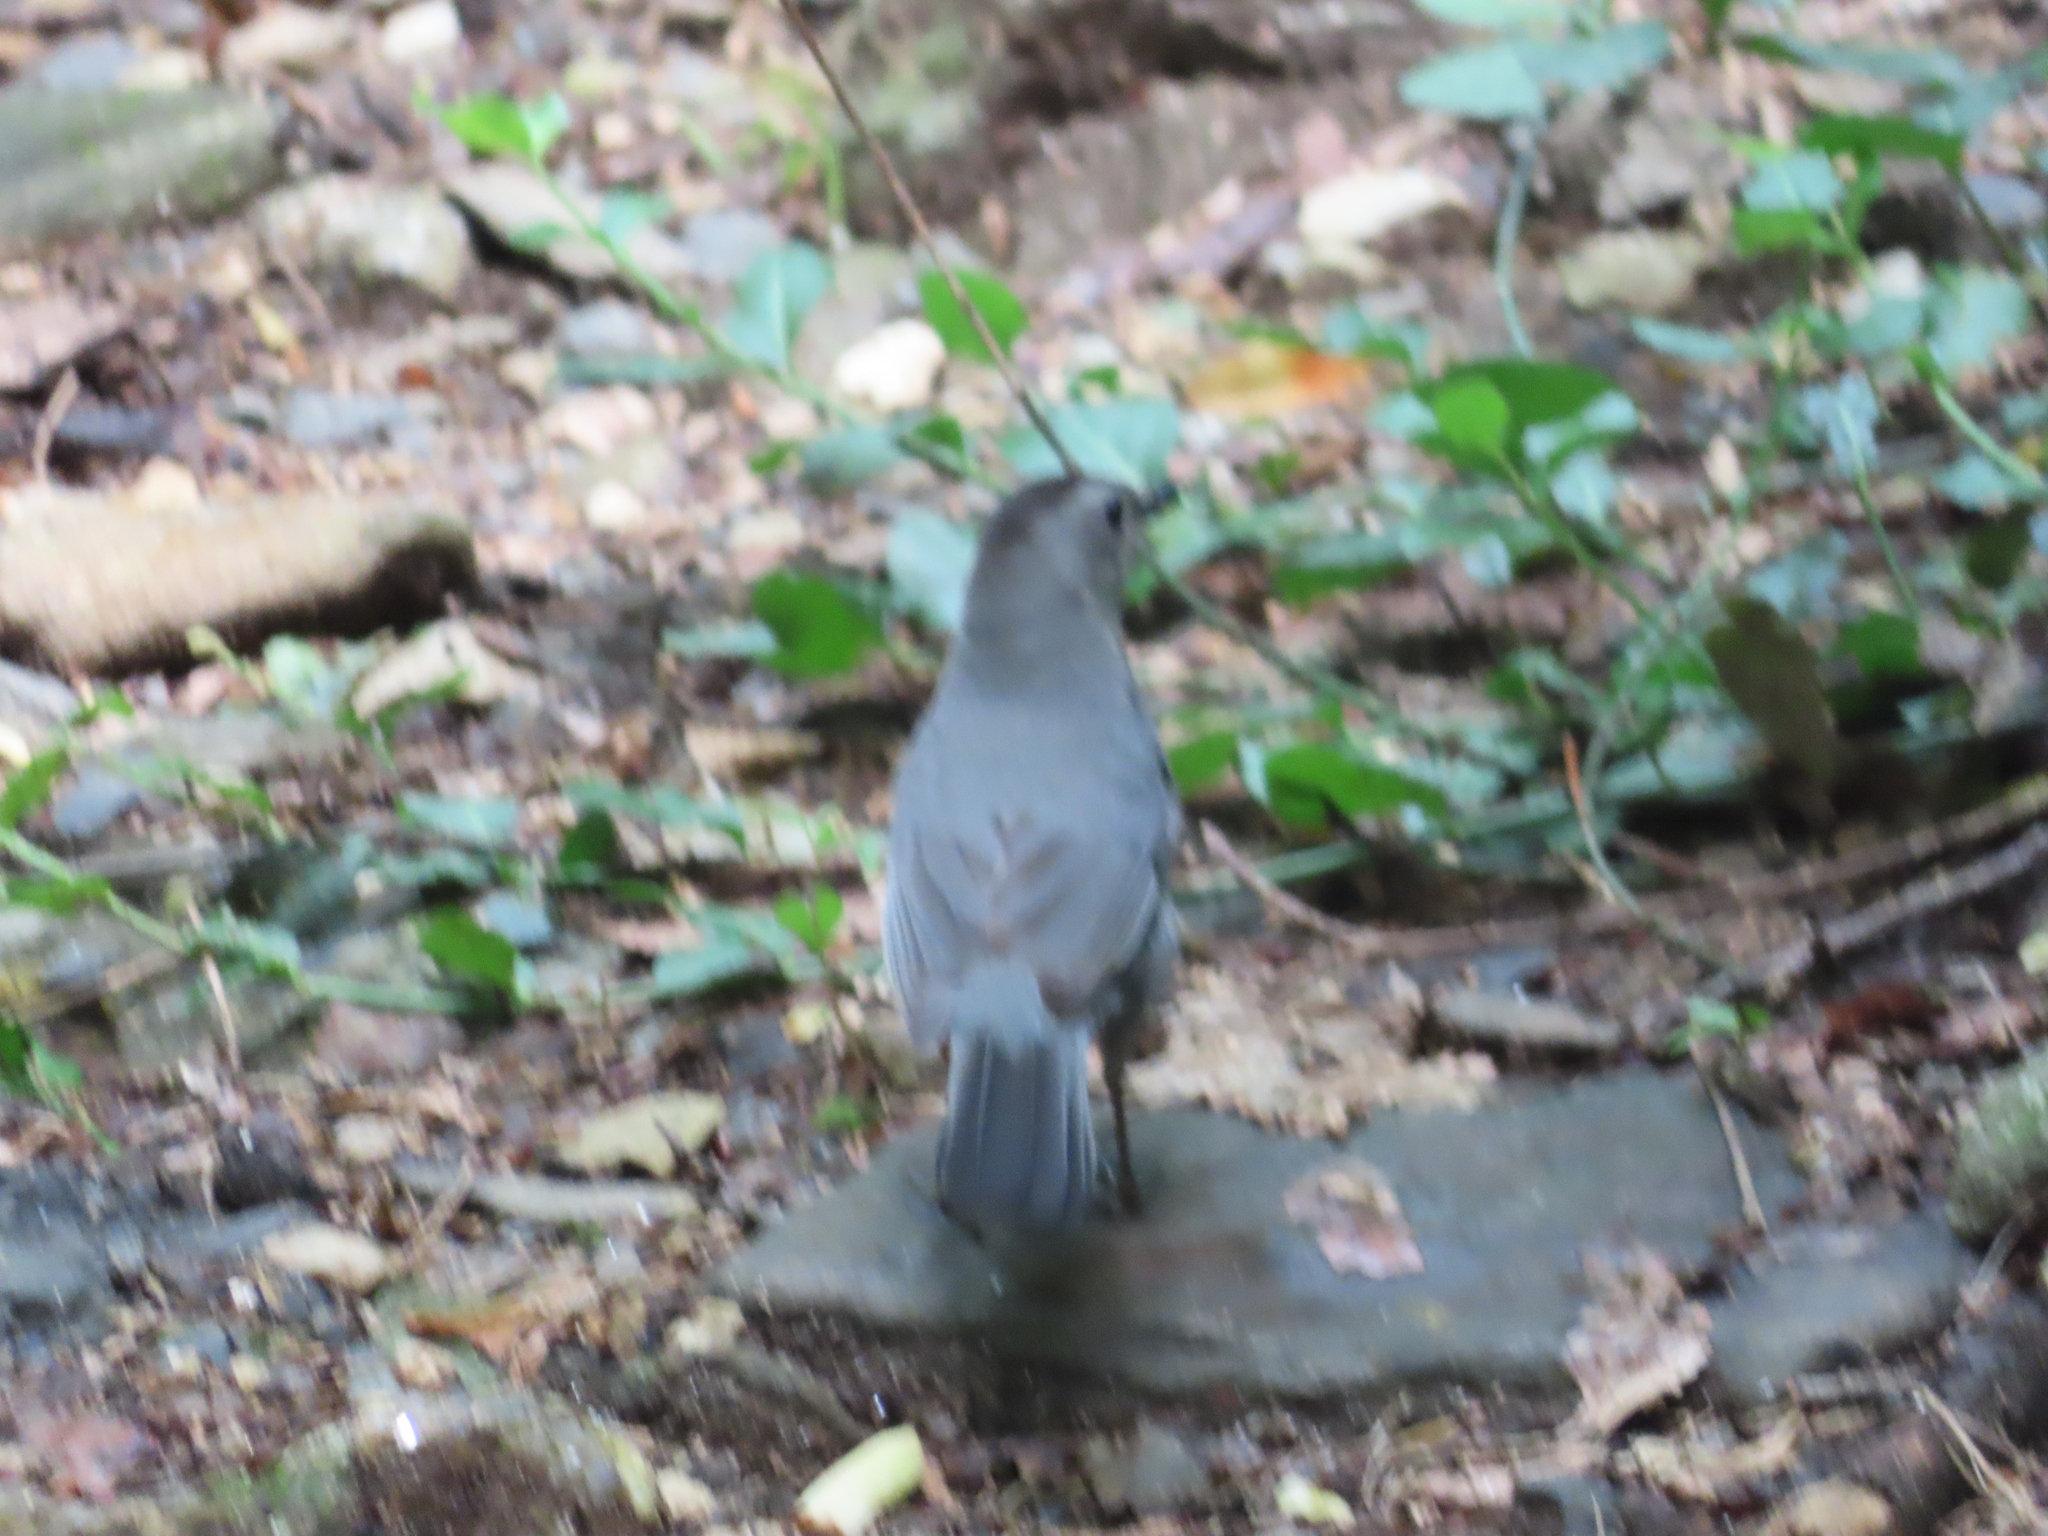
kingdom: Animalia
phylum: Chordata
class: Aves
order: Passeriformes
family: Mimidae
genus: Dumetella
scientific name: Dumetella carolinensis
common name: Gray catbird
